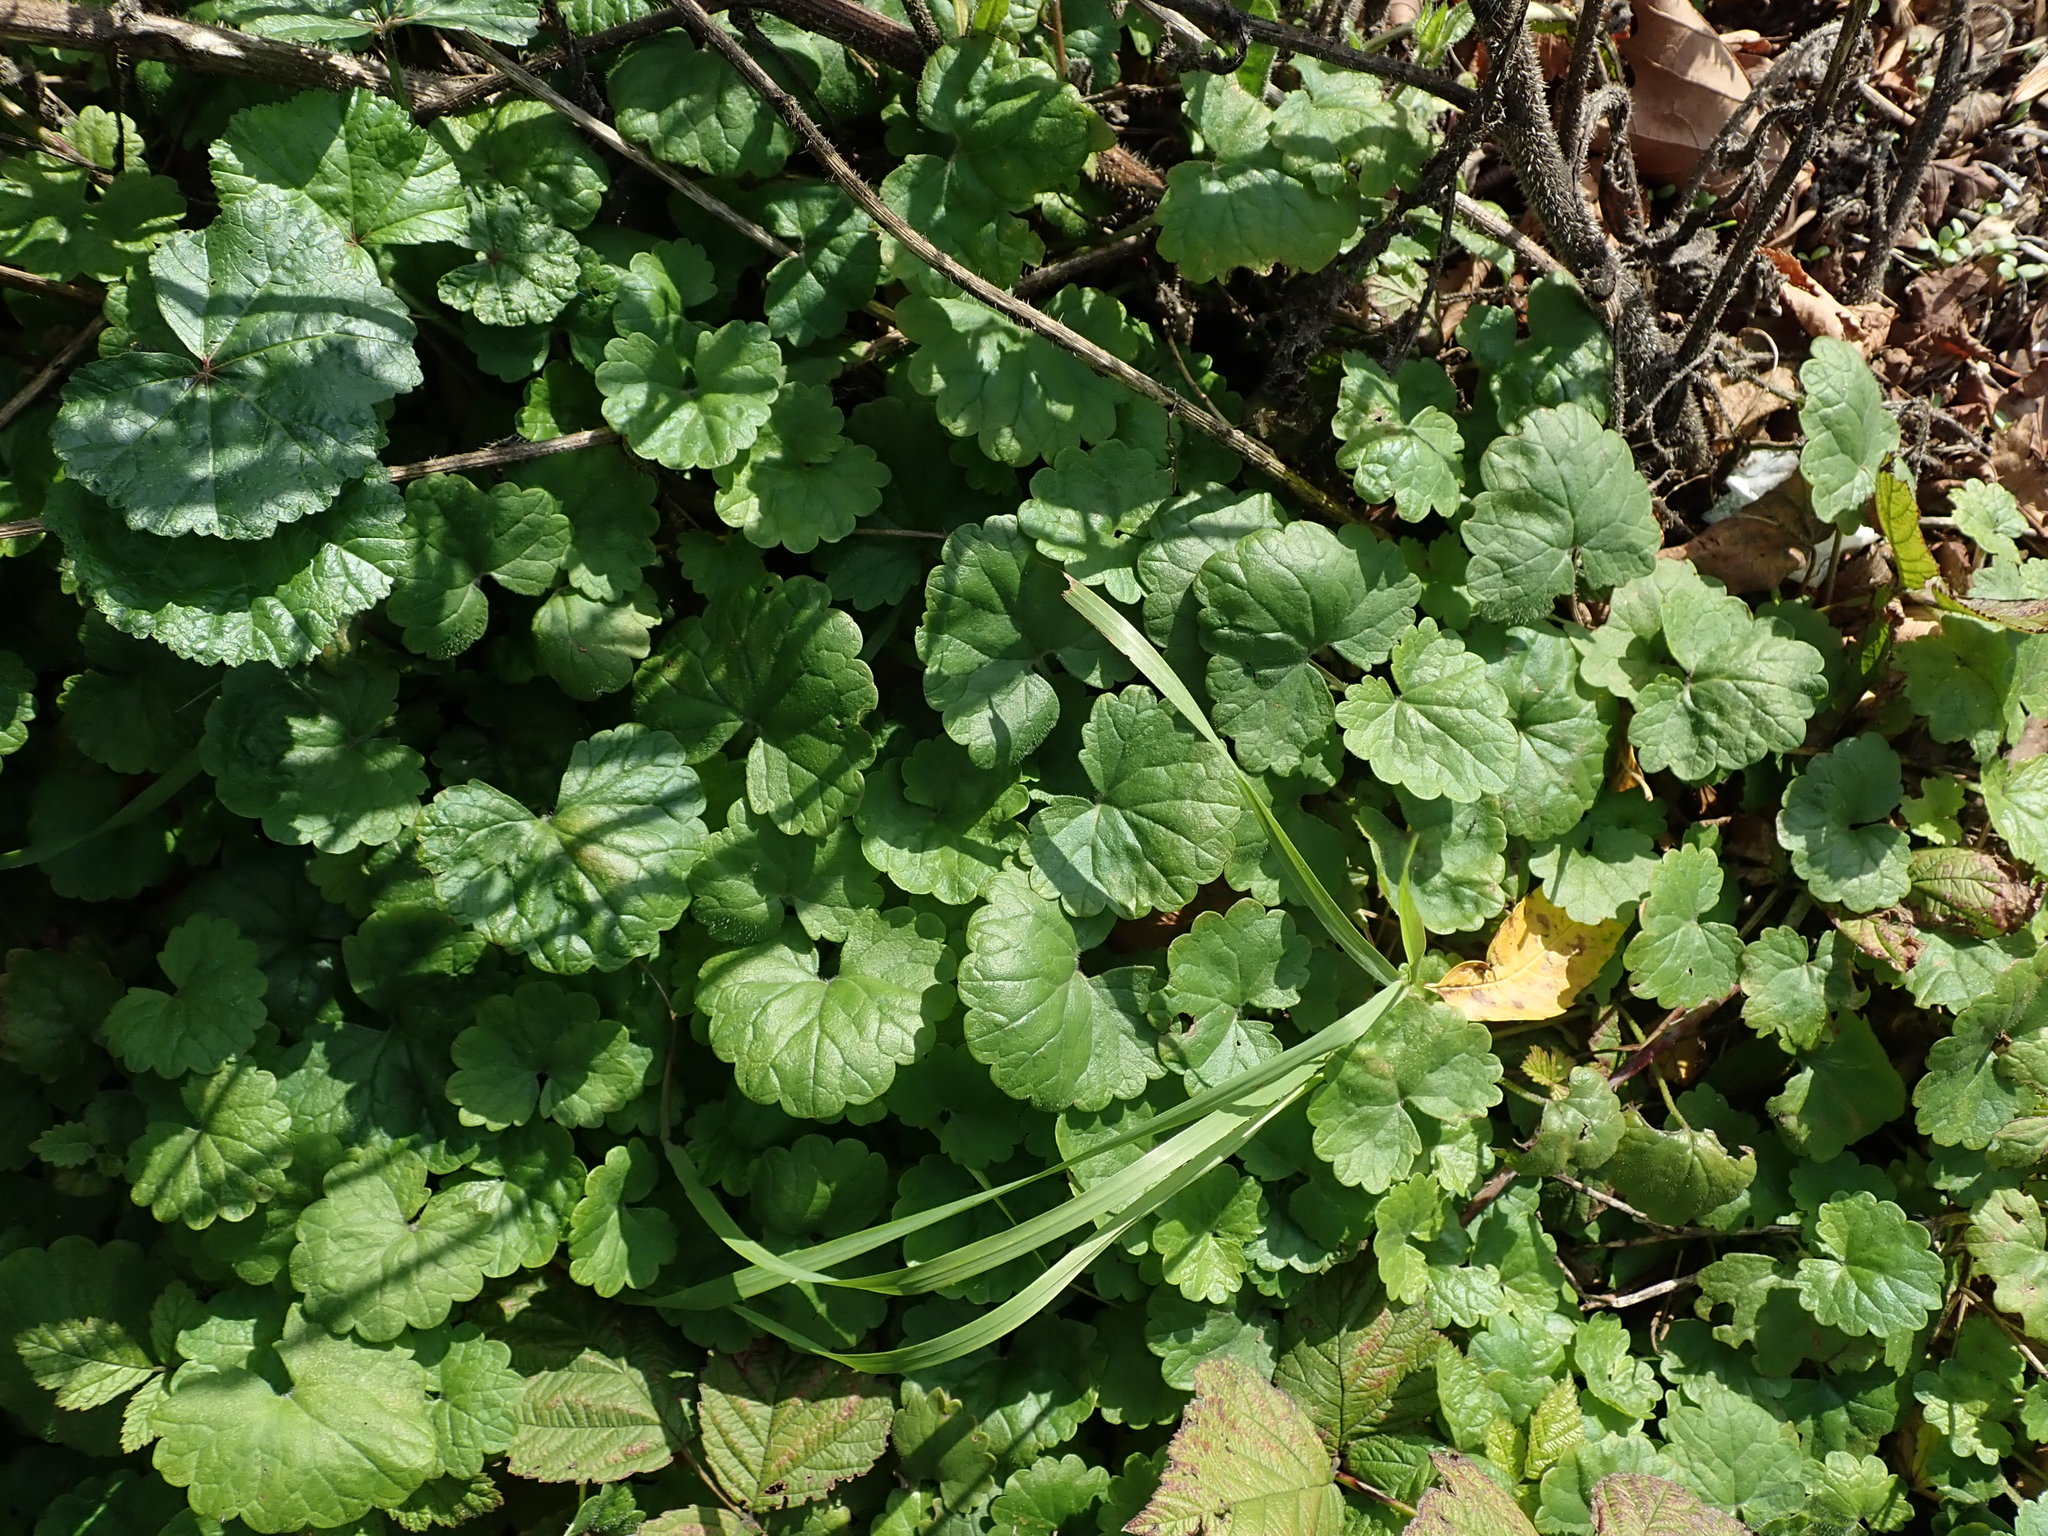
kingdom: Plantae
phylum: Tracheophyta
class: Magnoliopsida
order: Lamiales
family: Lamiaceae
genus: Glechoma
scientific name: Glechoma hederacea
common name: Ground ivy
